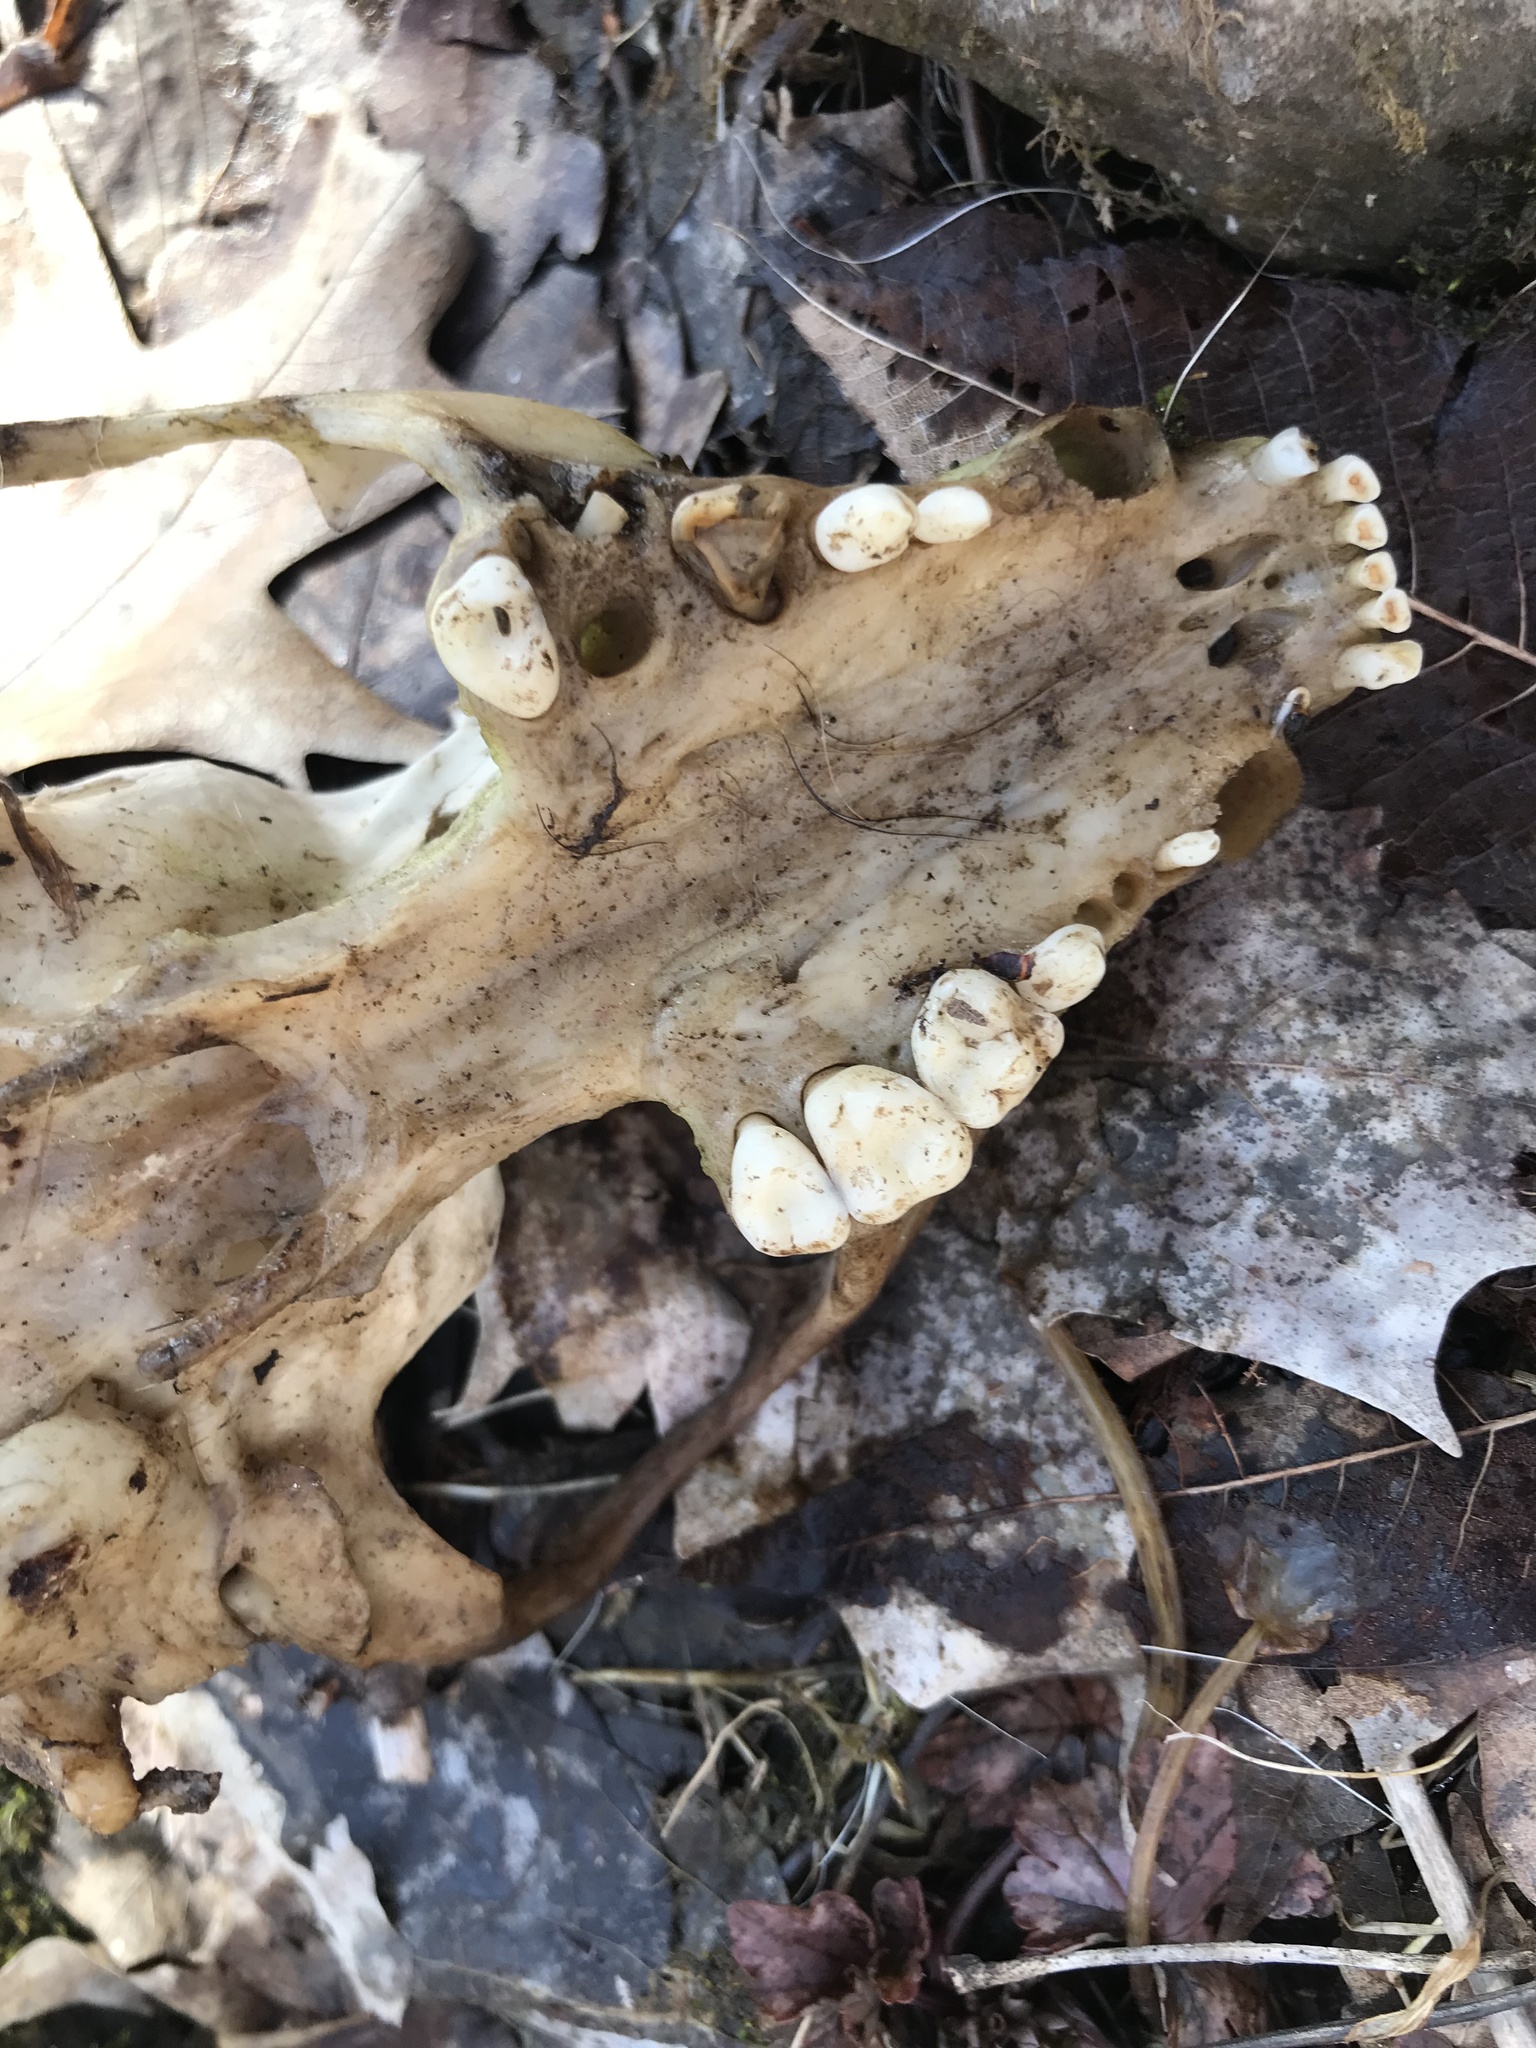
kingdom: Animalia
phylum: Chordata
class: Mammalia
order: Carnivora
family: Procyonidae
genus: Procyon
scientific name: Procyon lotor
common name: Raccoon
